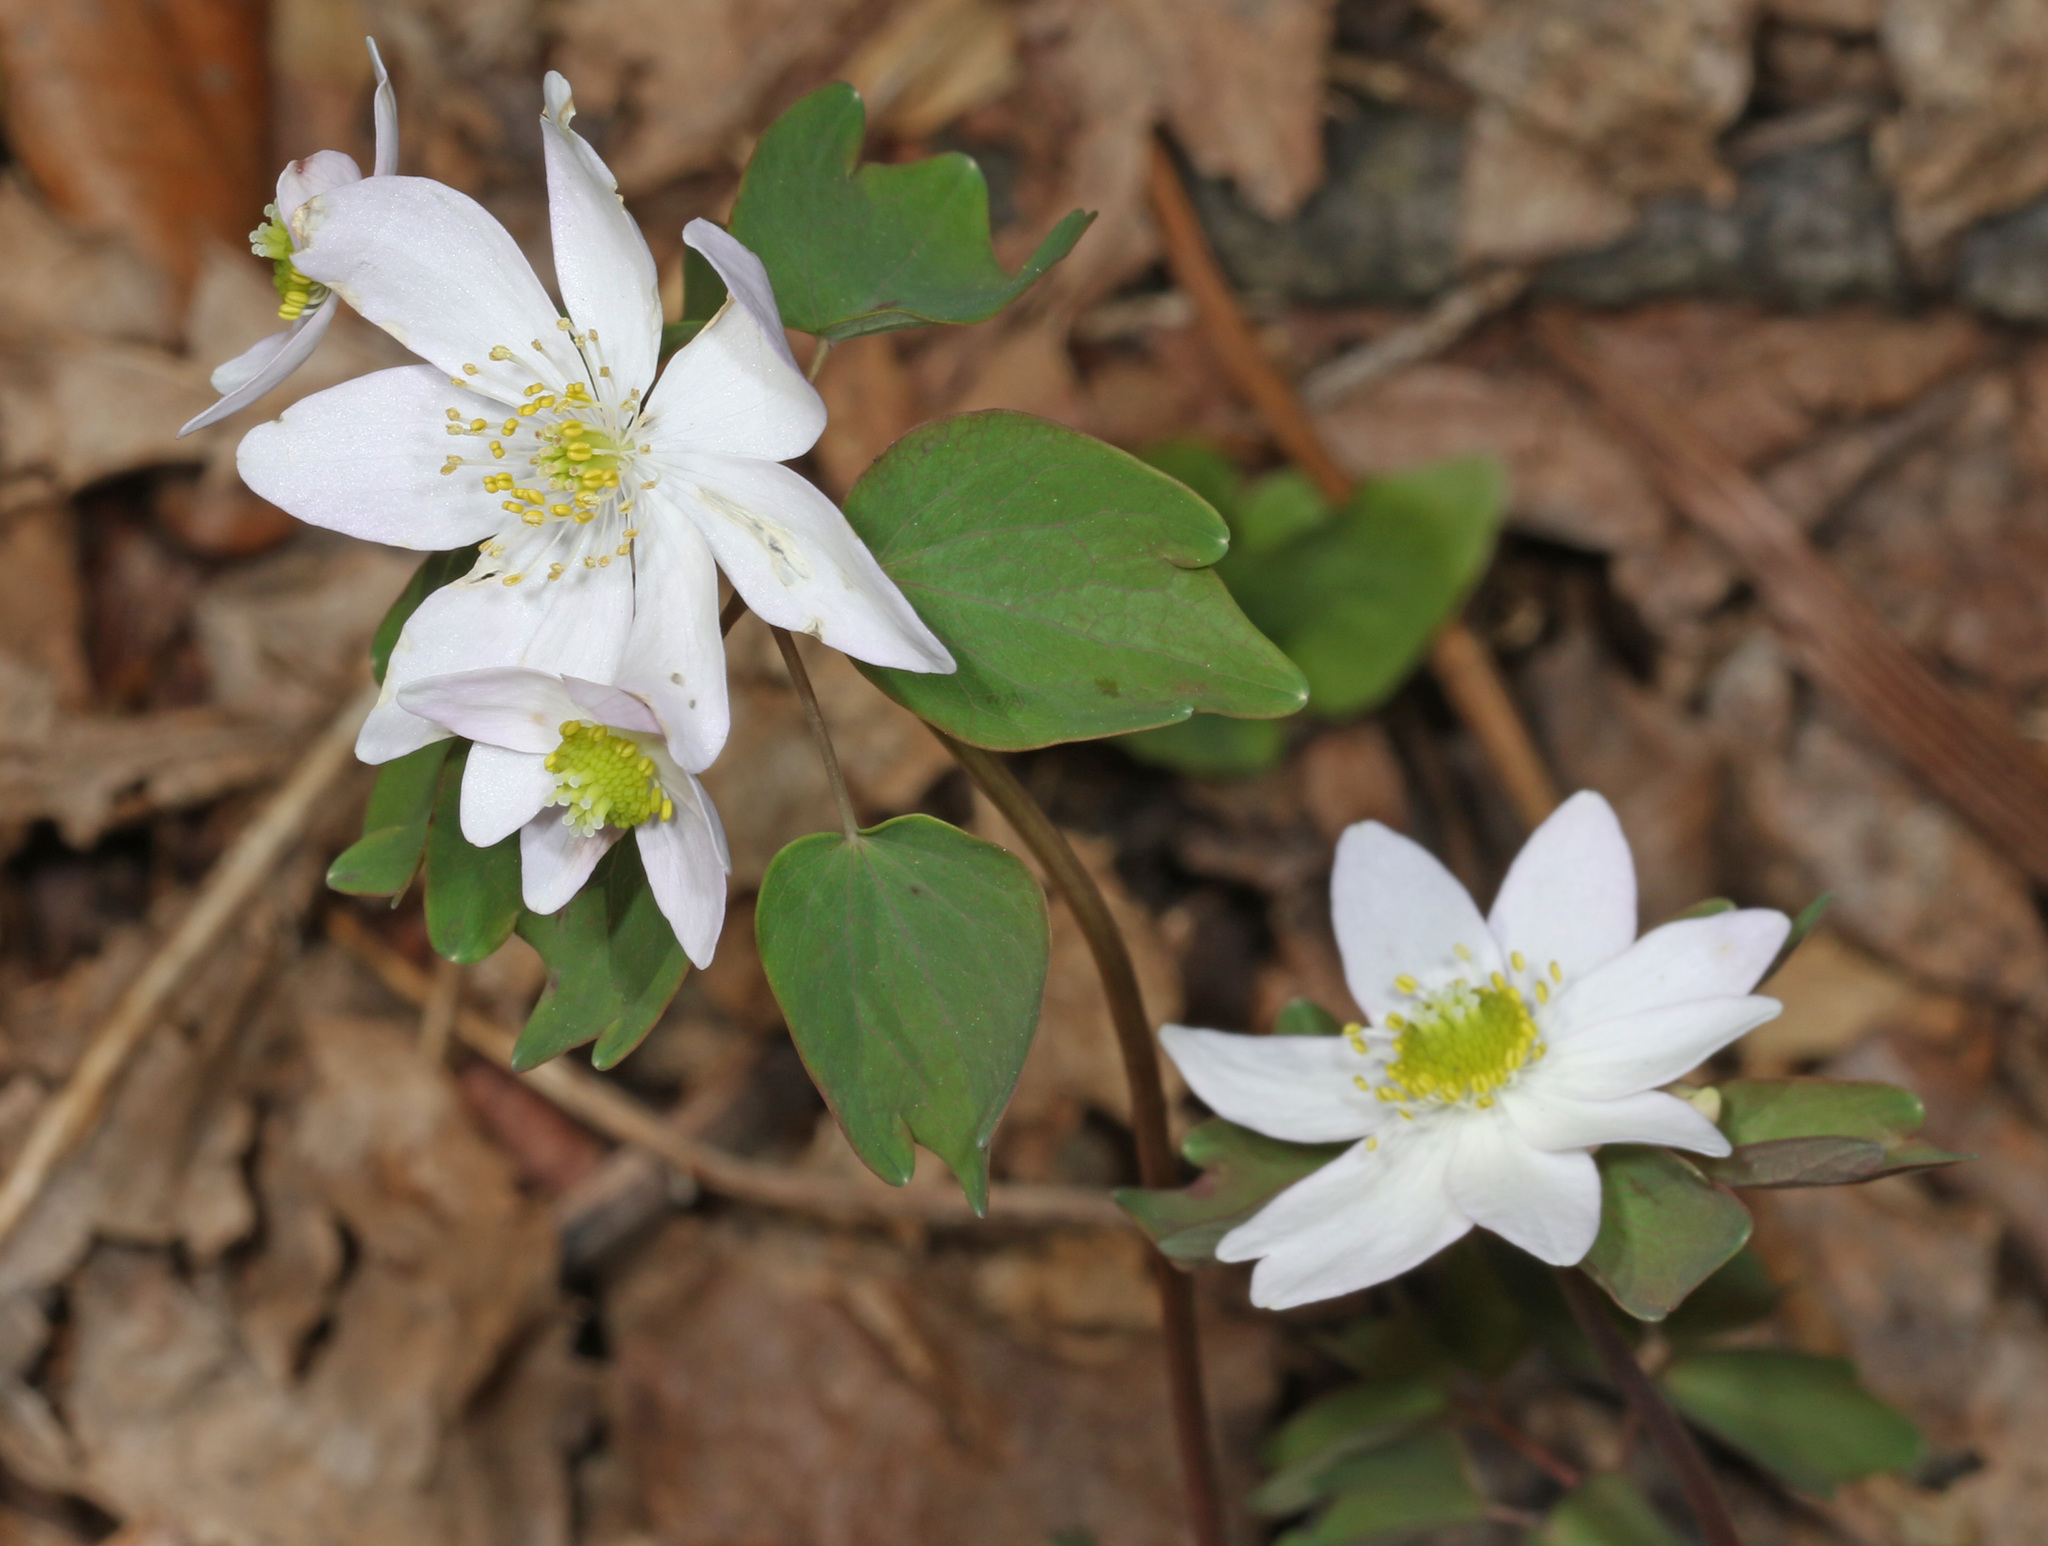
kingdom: Plantae
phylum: Tracheophyta
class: Magnoliopsida
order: Ranunculales
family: Ranunculaceae
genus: Thalictrum
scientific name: Thalictrum thalictroides
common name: Rue-anemone
